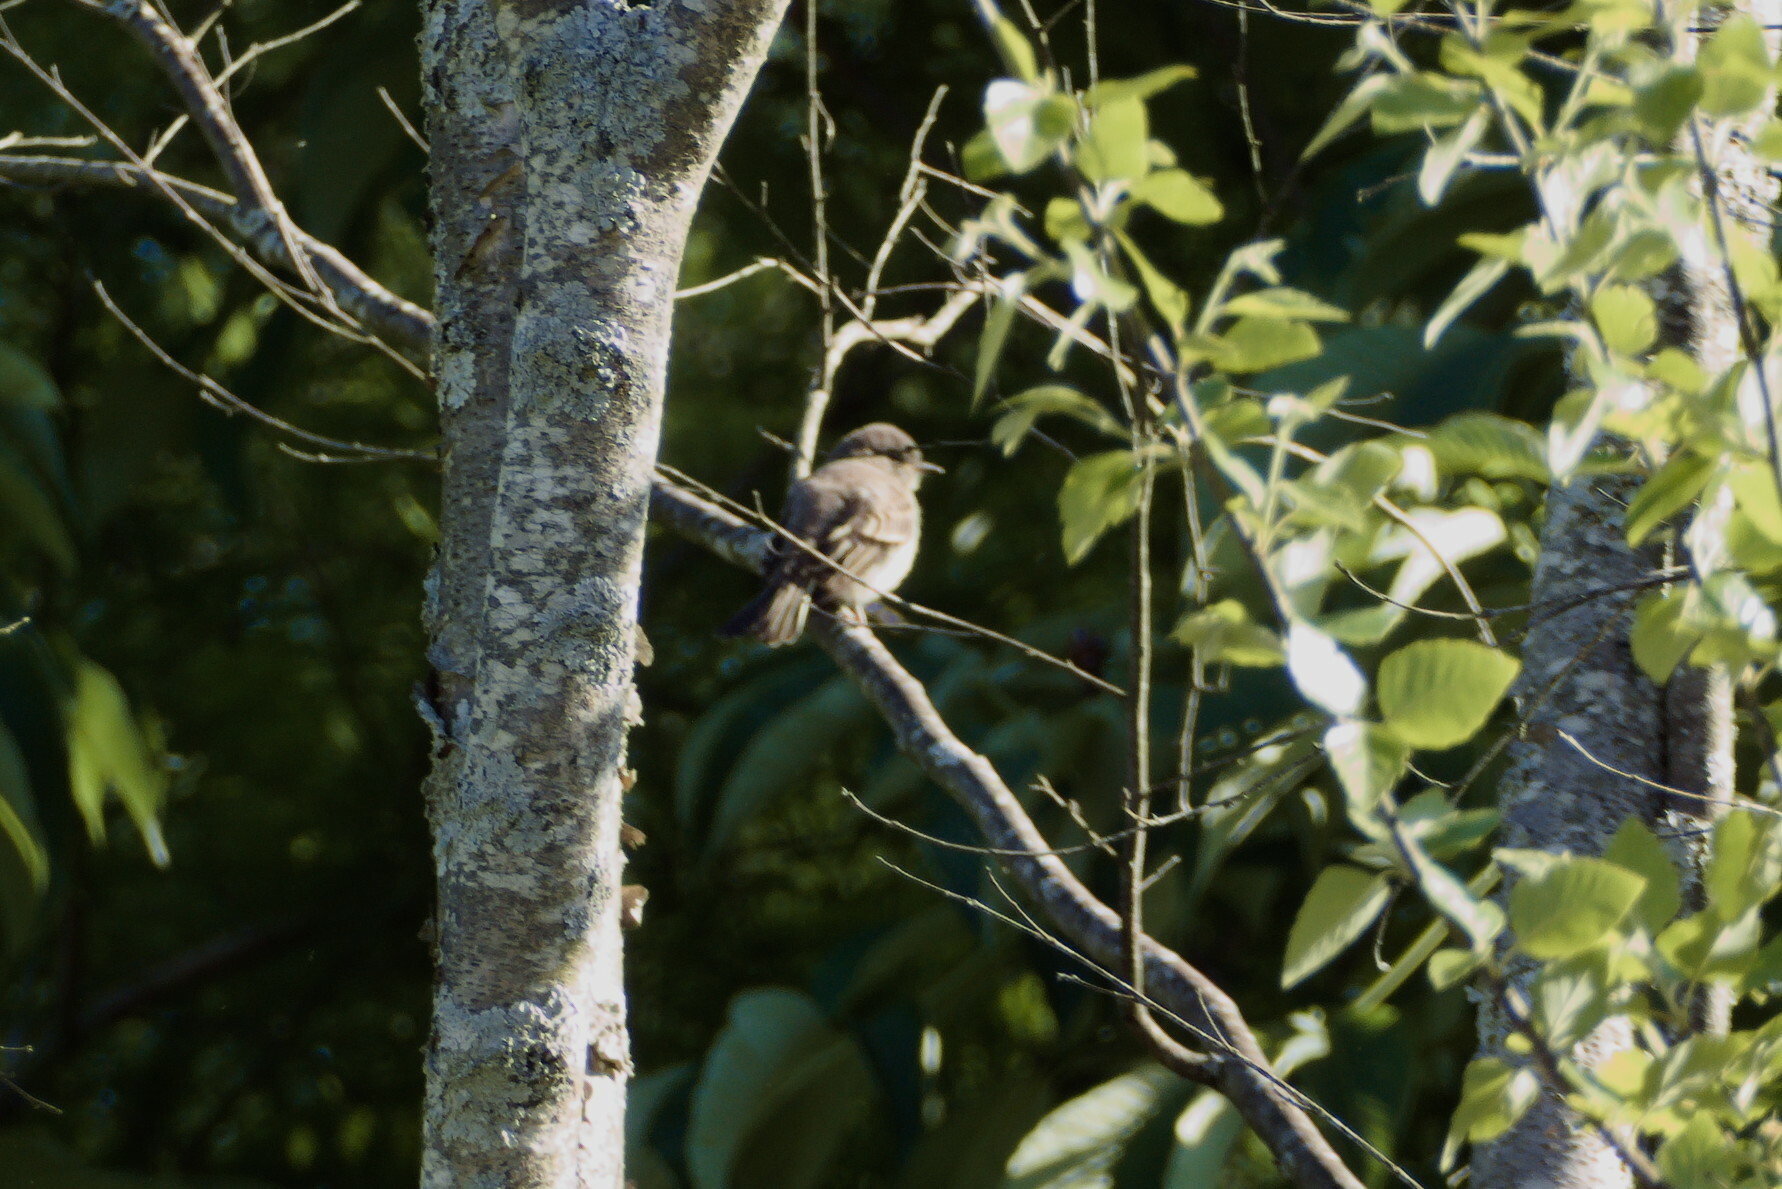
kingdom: Animalia
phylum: Chordata
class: Aves
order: Passeriformes
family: Tyrannidae
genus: Sayornis
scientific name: Sayornis phoebe
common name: Eastern phoebe
